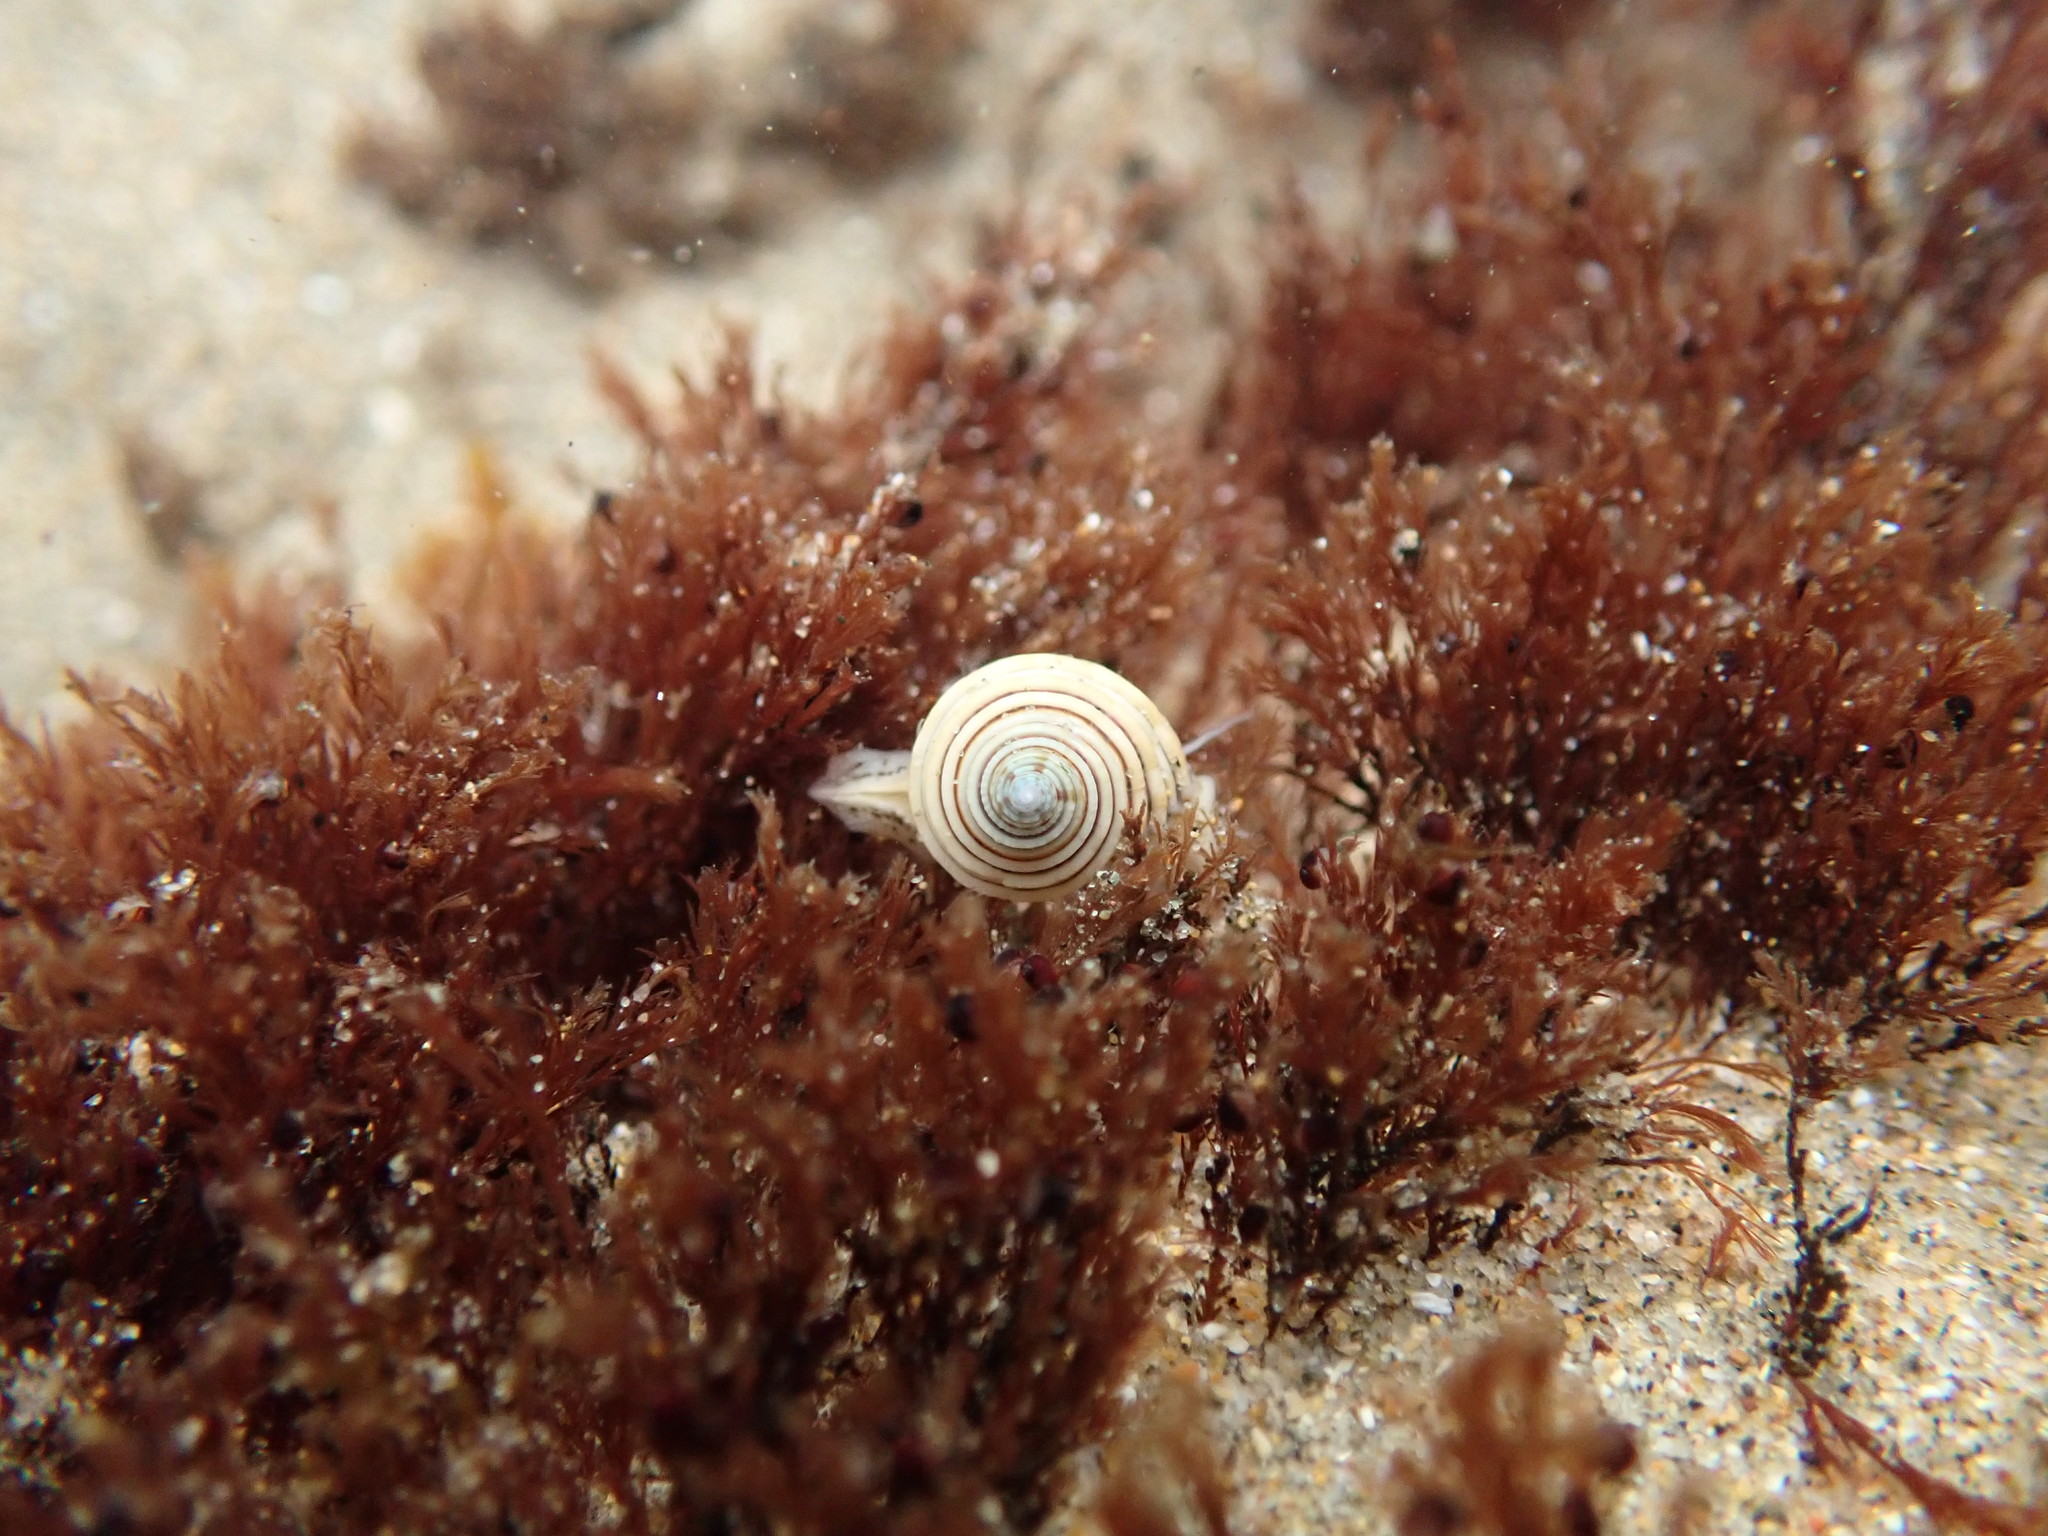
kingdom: Animalia
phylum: Mollusca
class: Gastropoda
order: Trochida
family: Calliostomatidae
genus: Calliostoma
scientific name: Calliostoma canaliculatum
